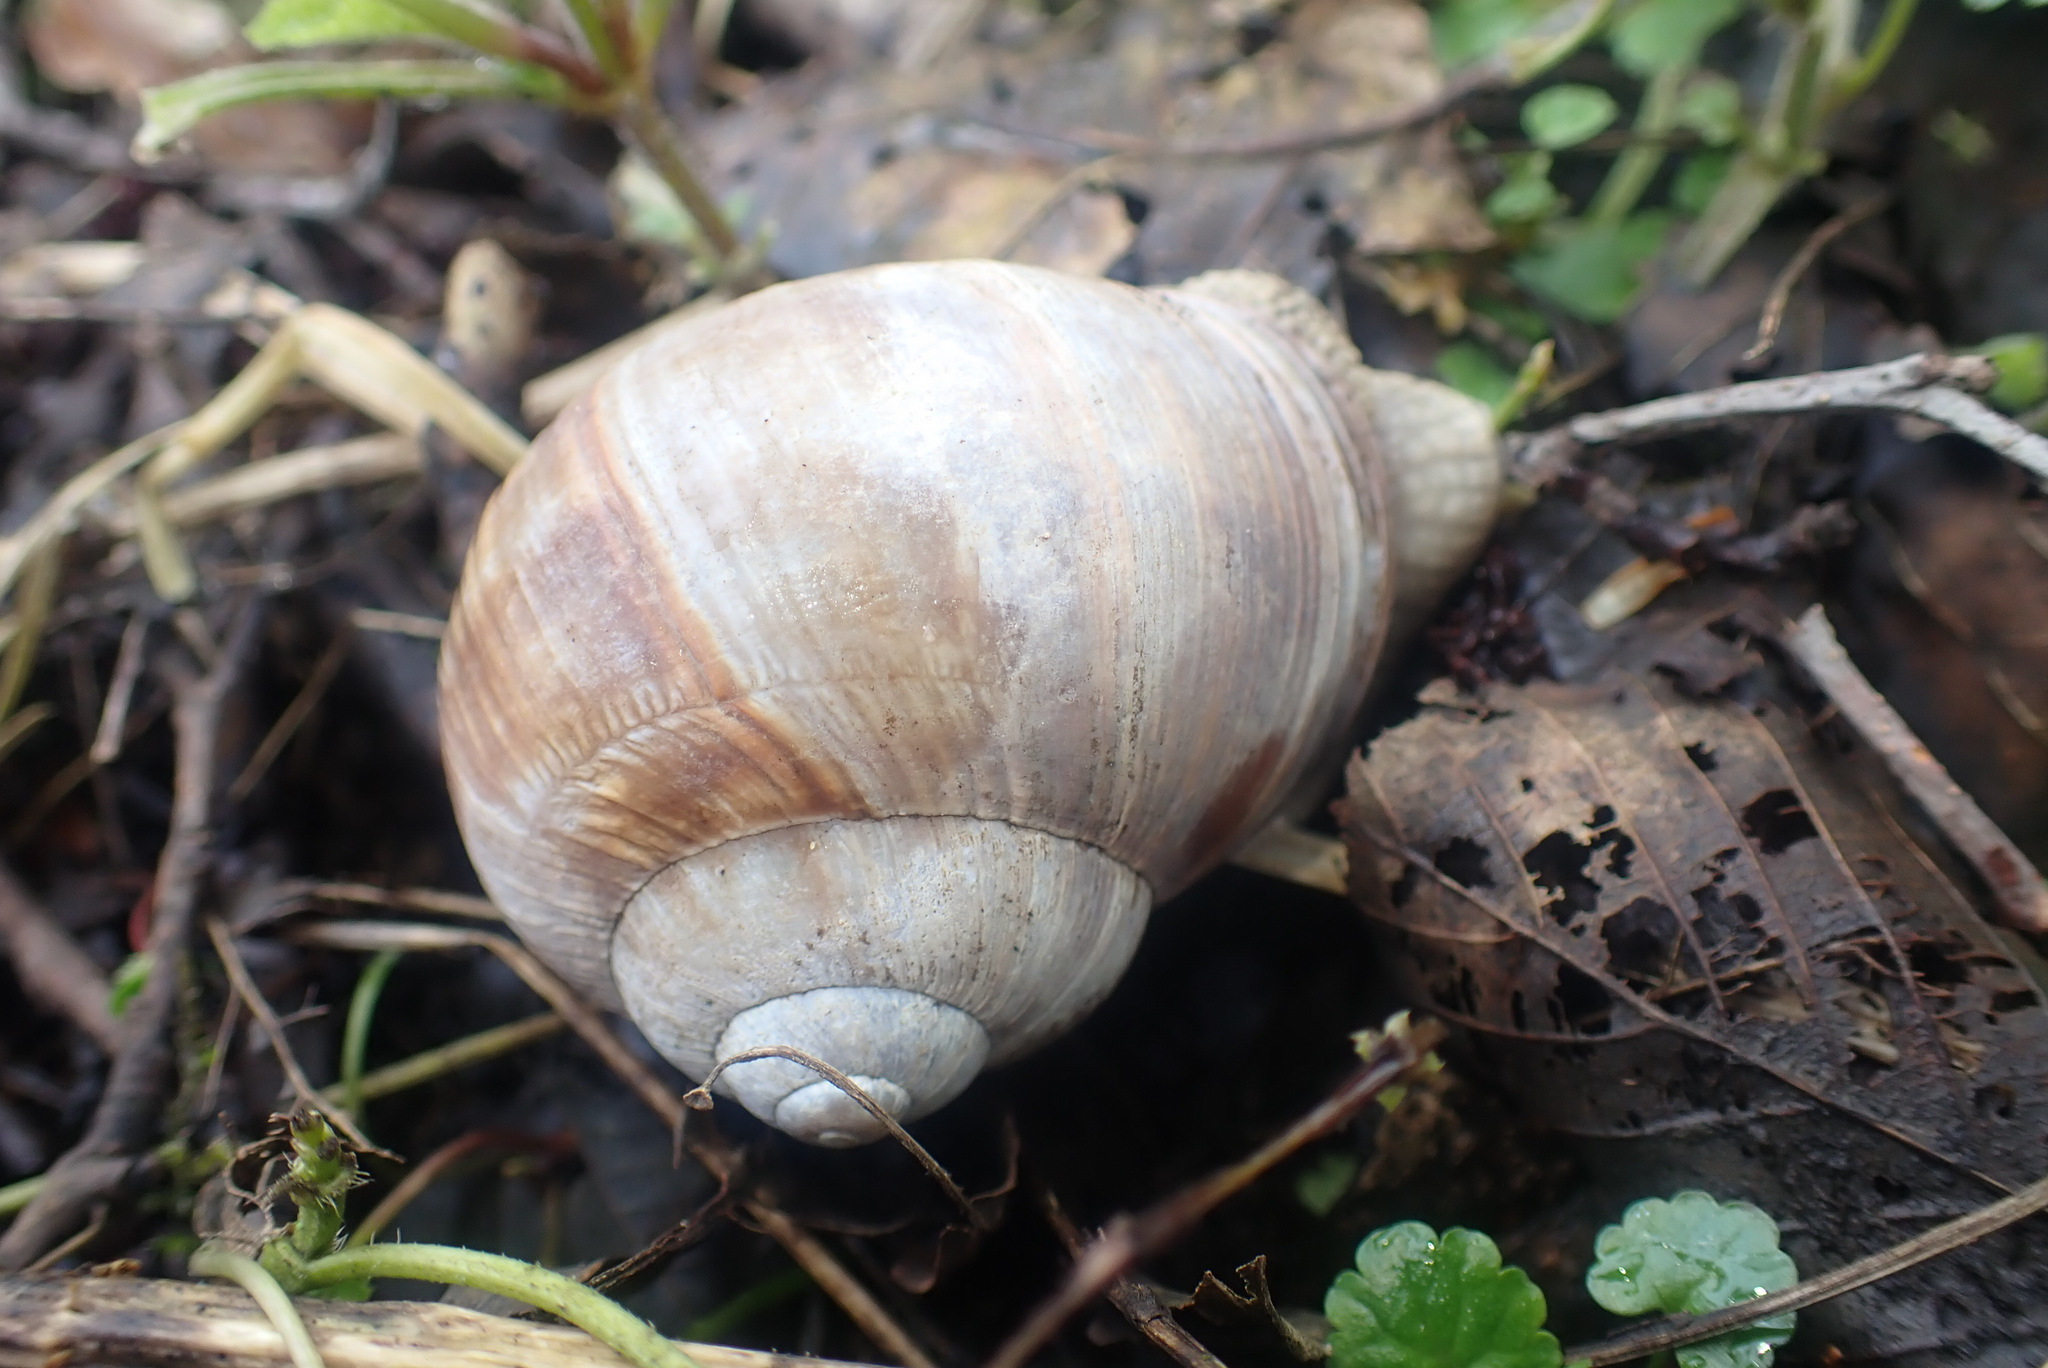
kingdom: Animalia
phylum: Mollusca
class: Gastropoda
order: Stylommatophora
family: Helicidae
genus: Helix
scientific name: Helix pomatia
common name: Roman snail
